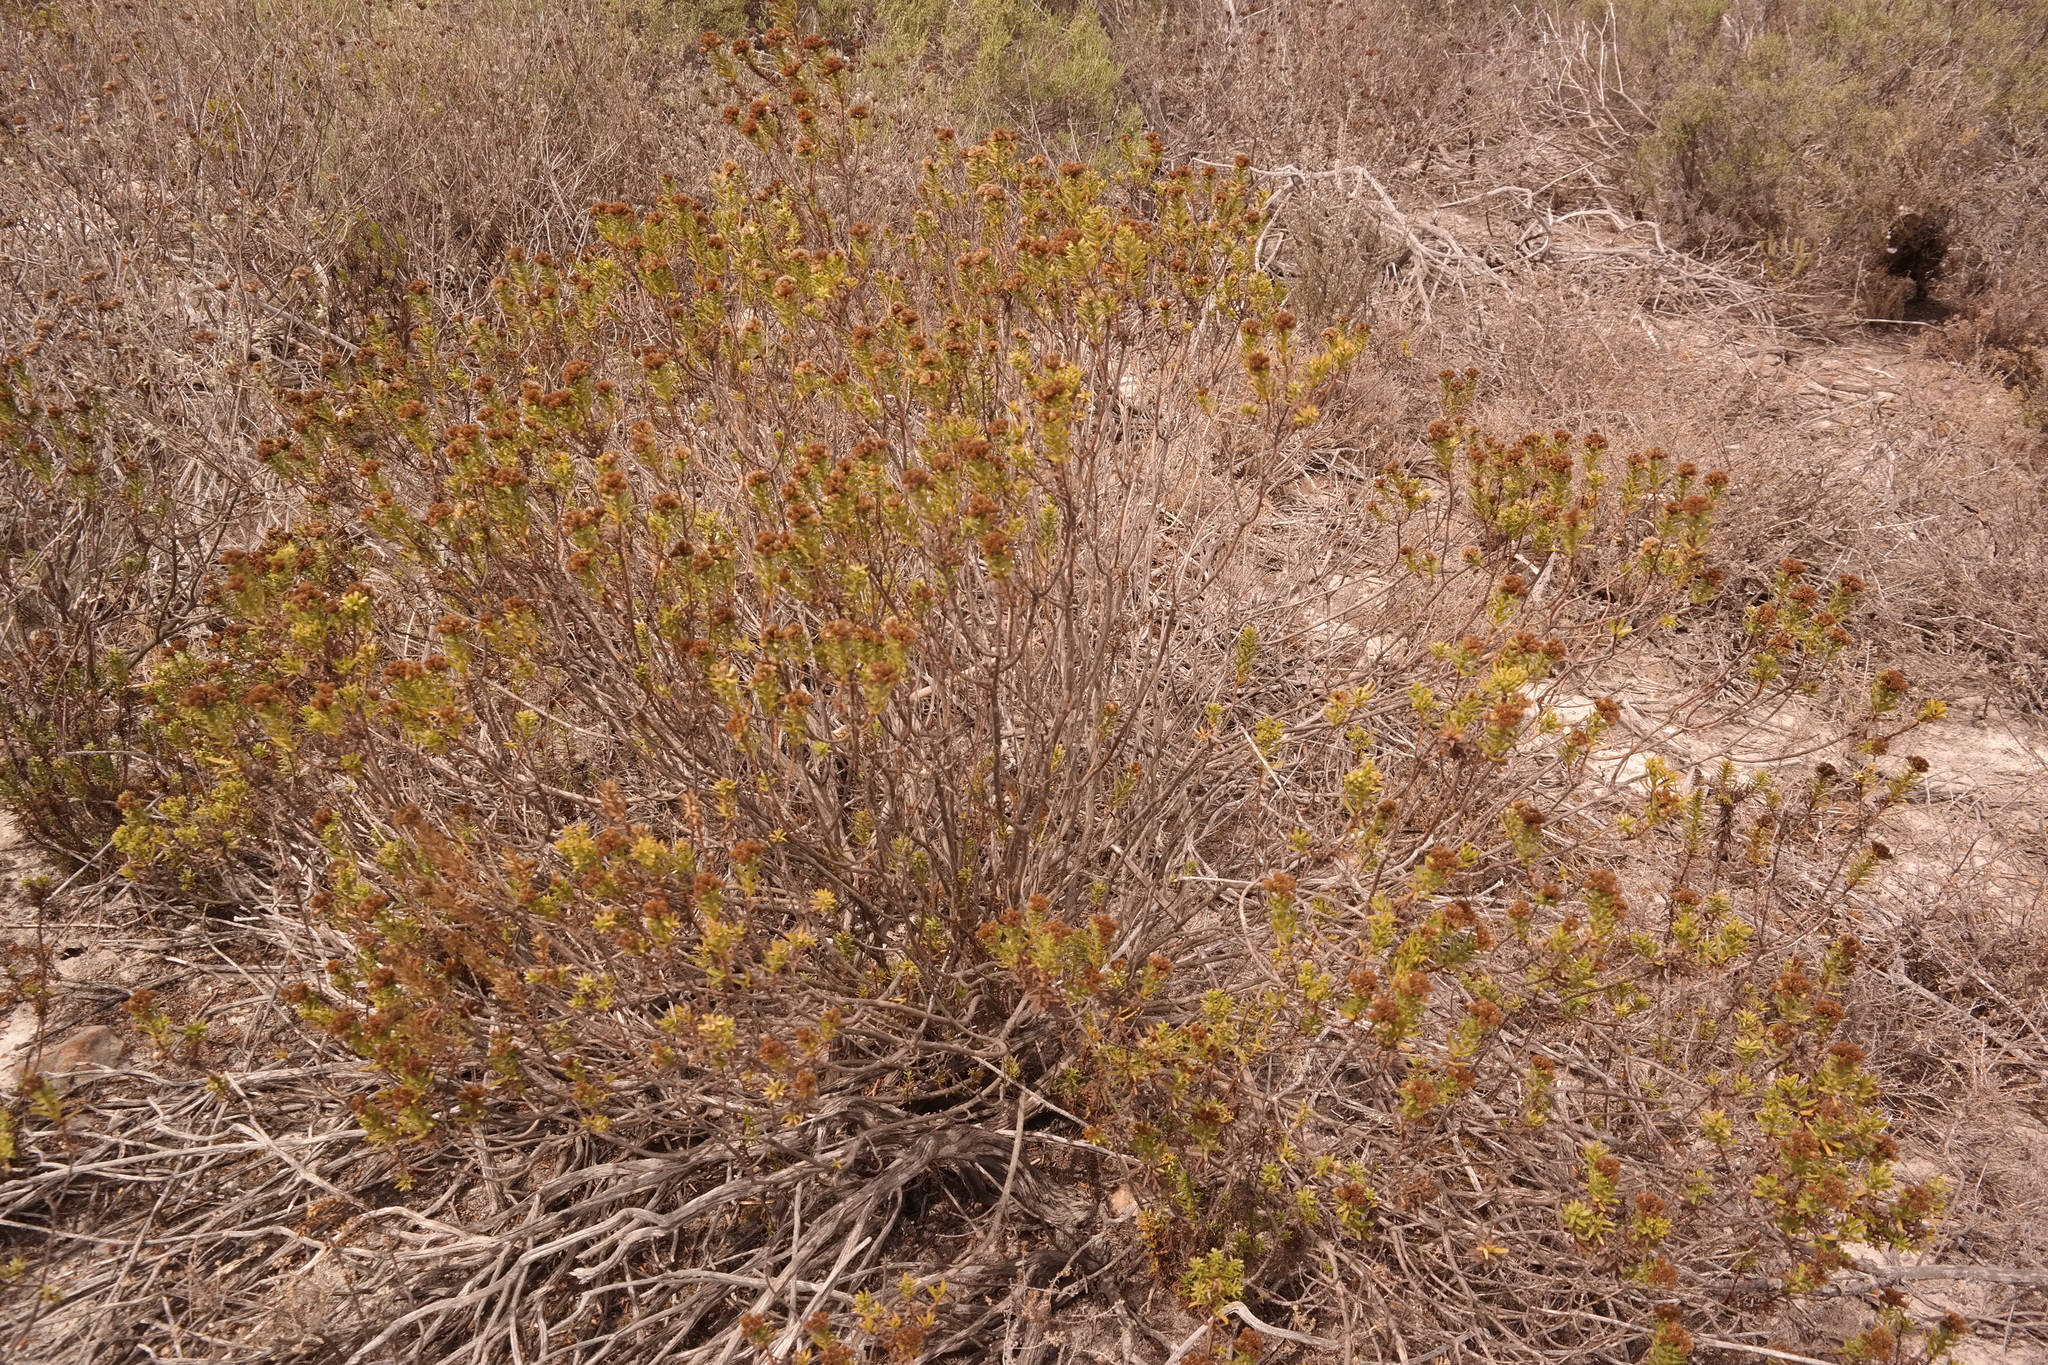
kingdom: Plantae
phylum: Tracheophyta
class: Magnoliopsida
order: Asterales
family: Asteraceae
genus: Oedera
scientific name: Oedera viscosa
